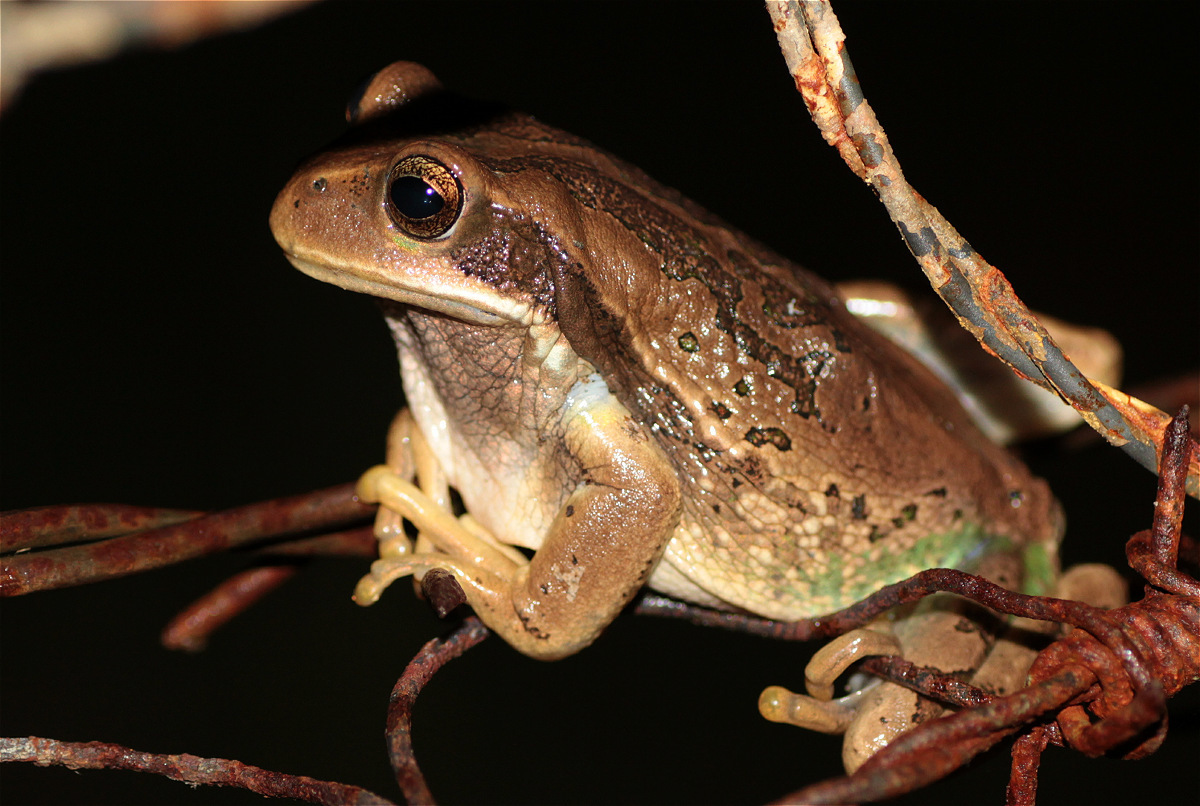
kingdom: Animalia
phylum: Chordata
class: Amphibia
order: Anura
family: Hemiphractidae
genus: Gastrotheca
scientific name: Gastrotheca cuencana
